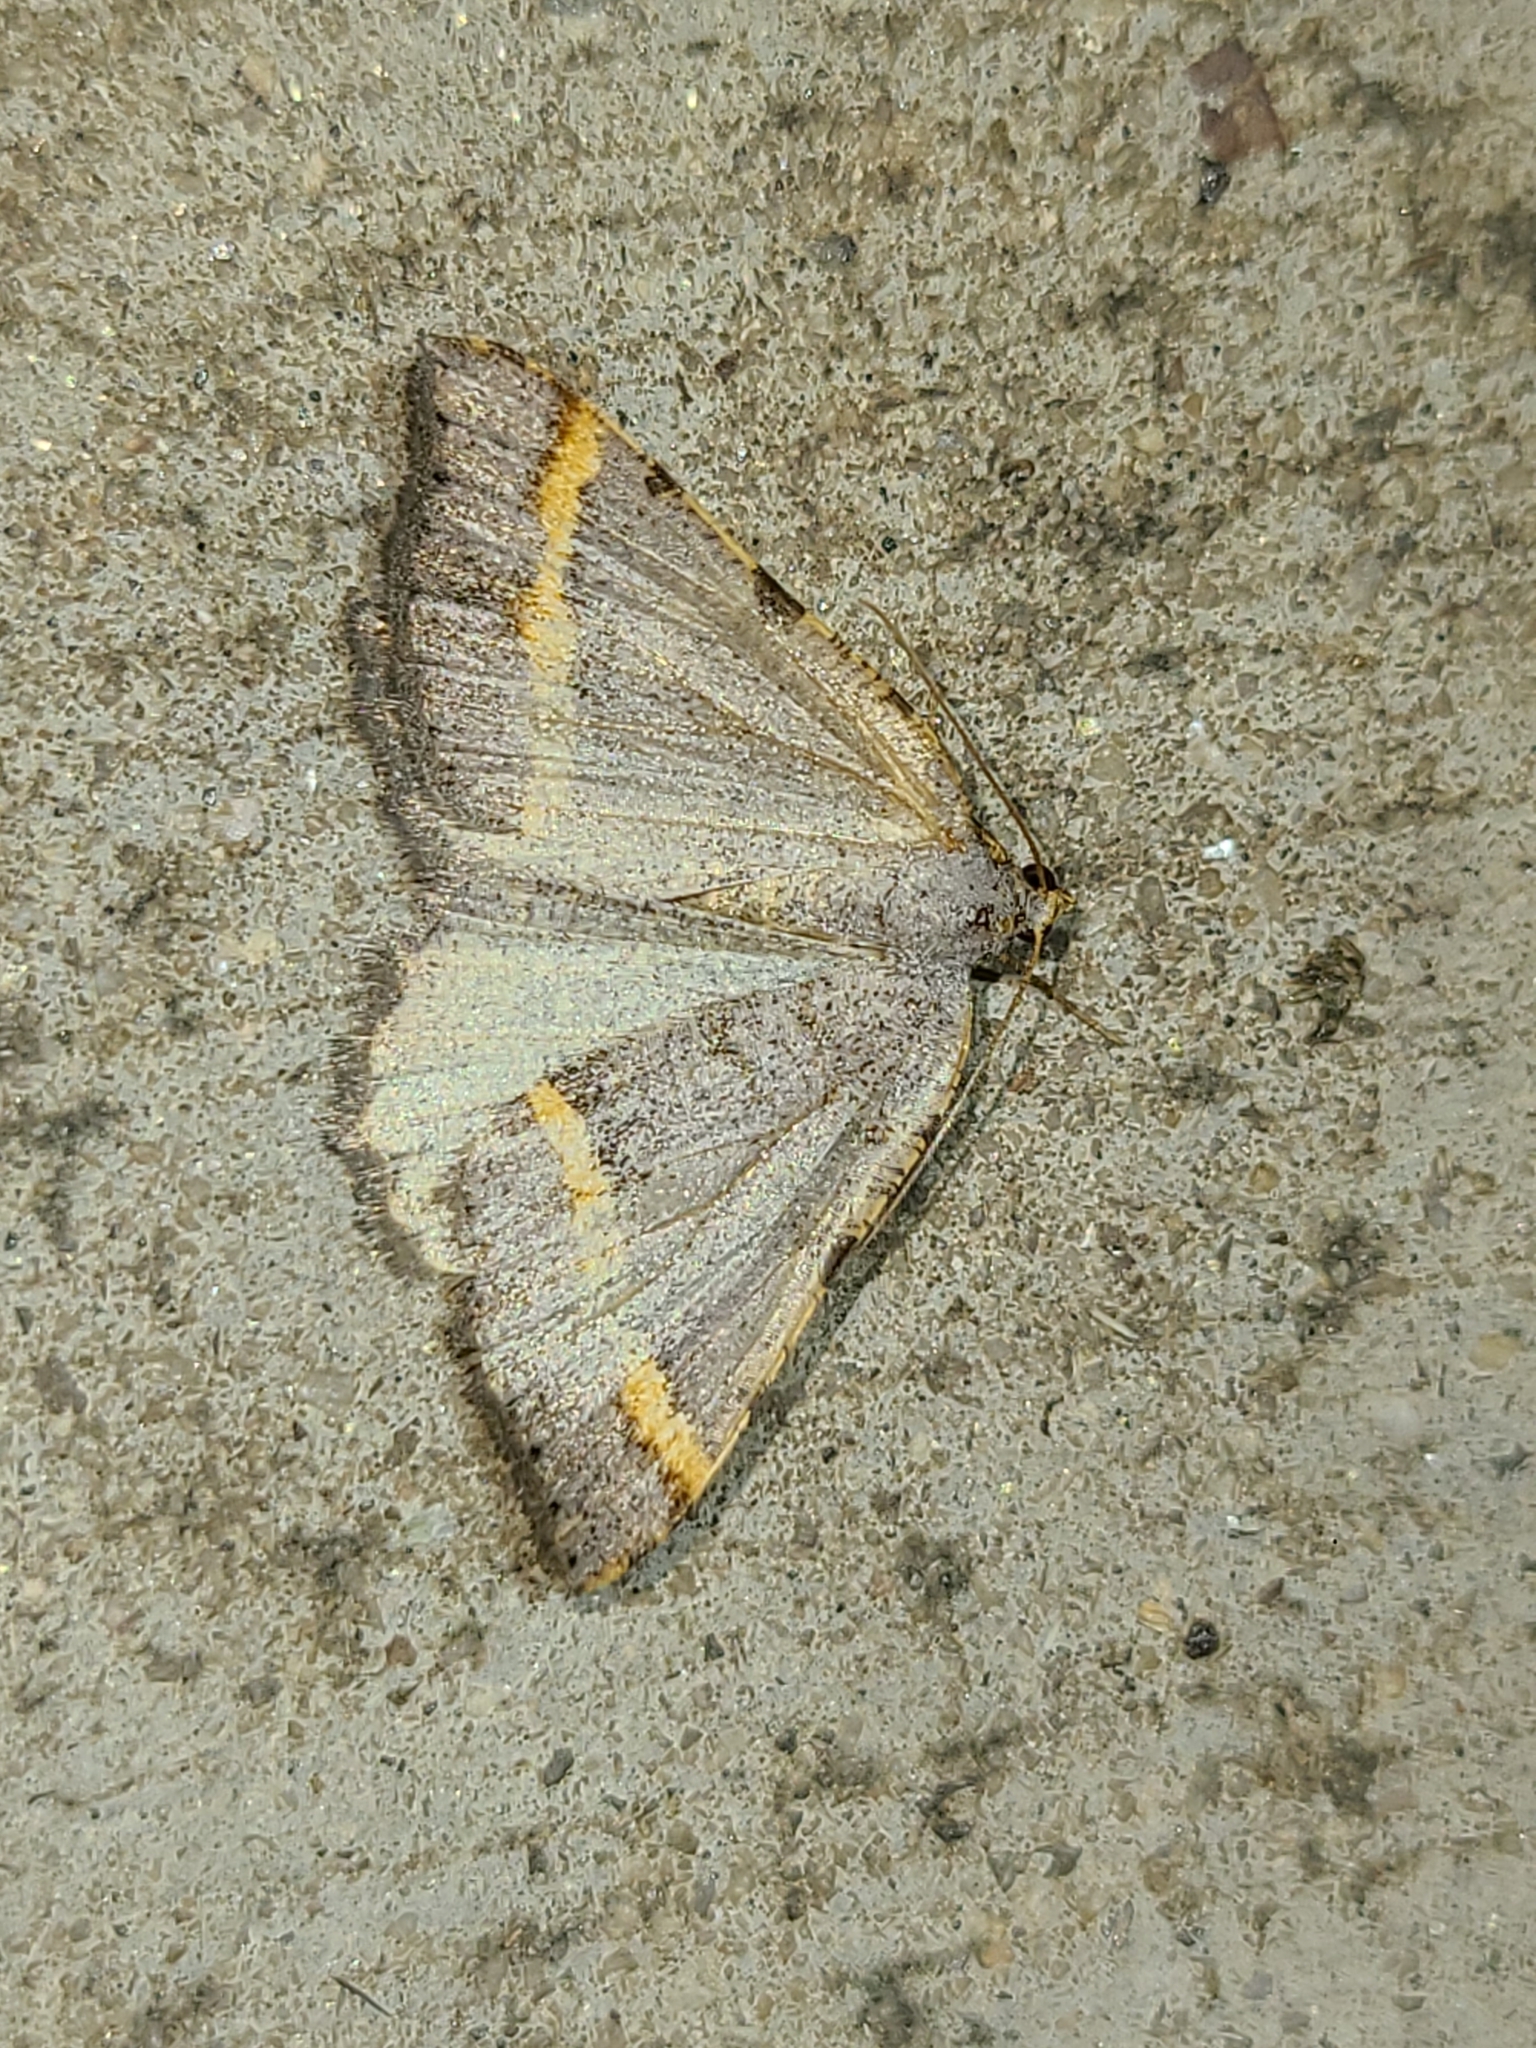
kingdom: Animalia
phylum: Arthropoda
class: Insecta
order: Lepidoptera
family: Geometridae
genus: Macaria
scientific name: Macaria guenearia
